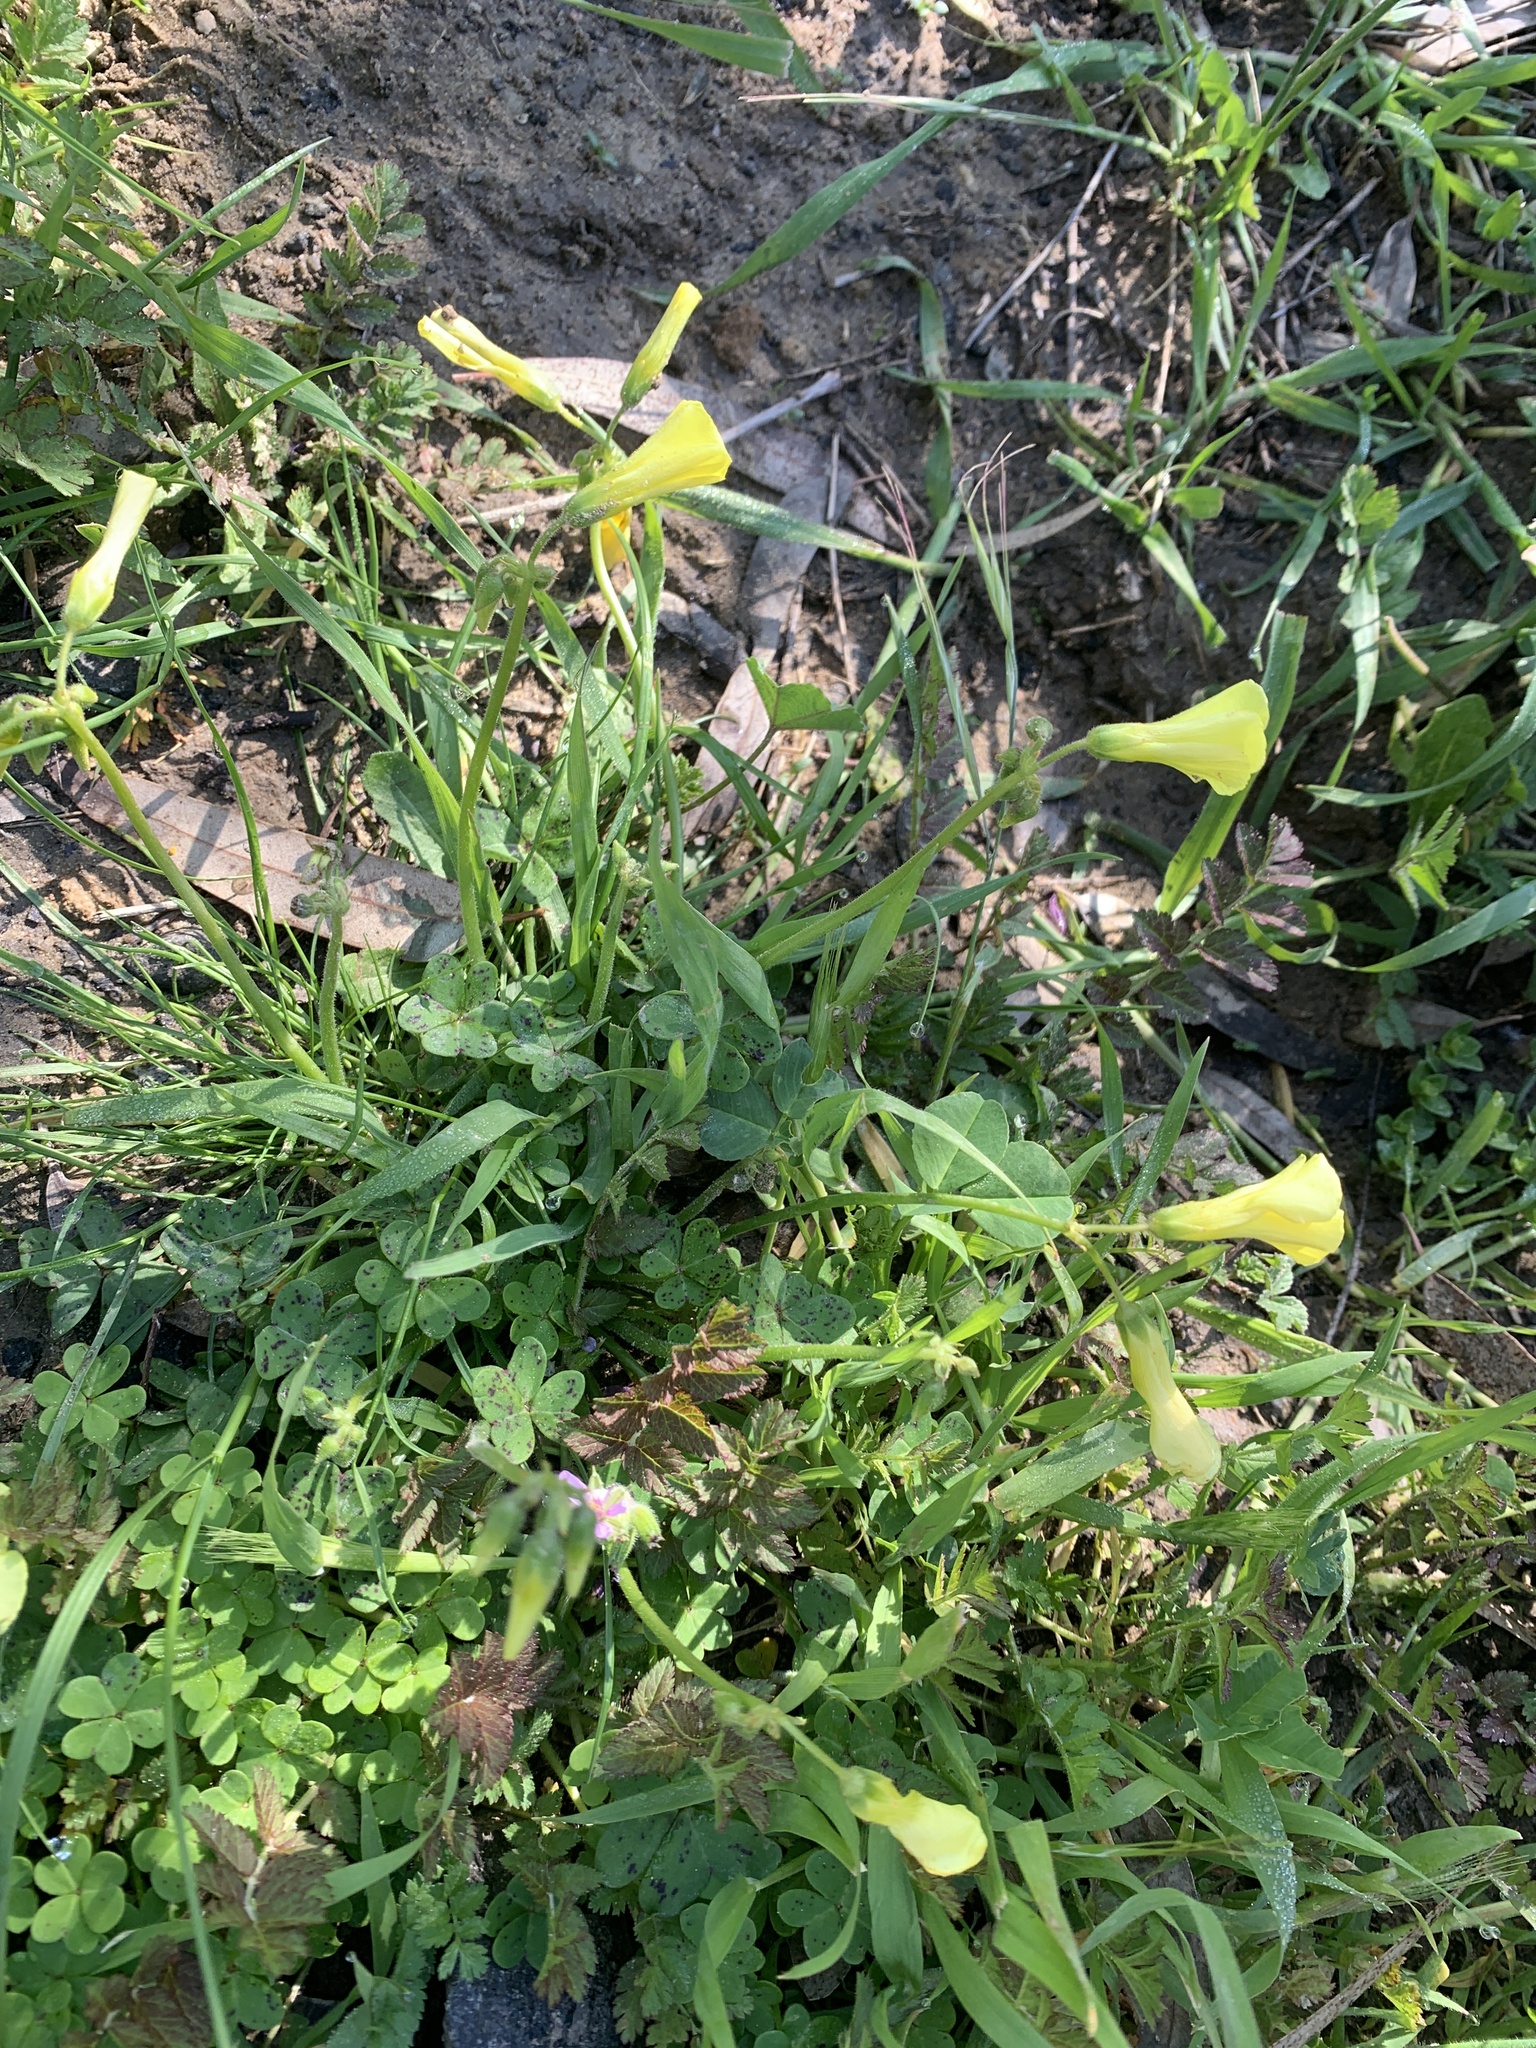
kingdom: Plantae
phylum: Tracheophyta
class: Magnoliopsida
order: Oxalidales
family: Oxalidaceae
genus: Oxalis
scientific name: Oxalis pes-caprae
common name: Bermuda-buttercup
